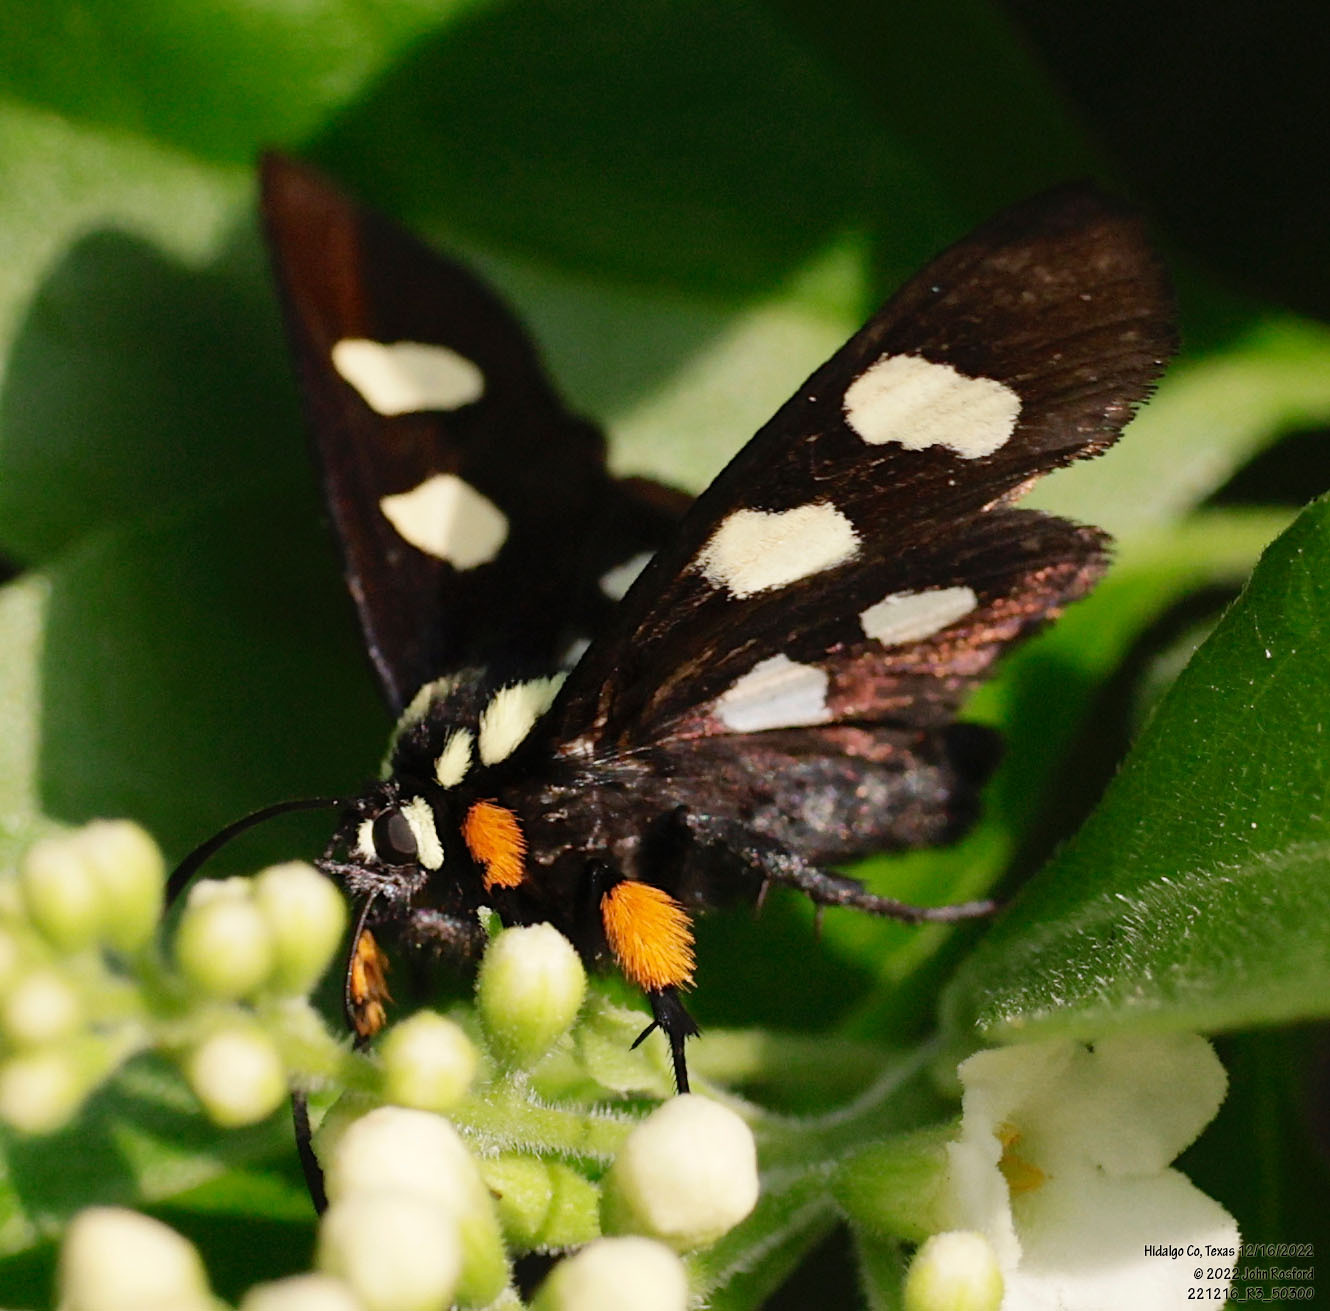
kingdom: Animalia
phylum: Arthropoda
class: Insecta
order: Lepidoptera
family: Noctuidae
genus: Alypia
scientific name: Alypia disparata
